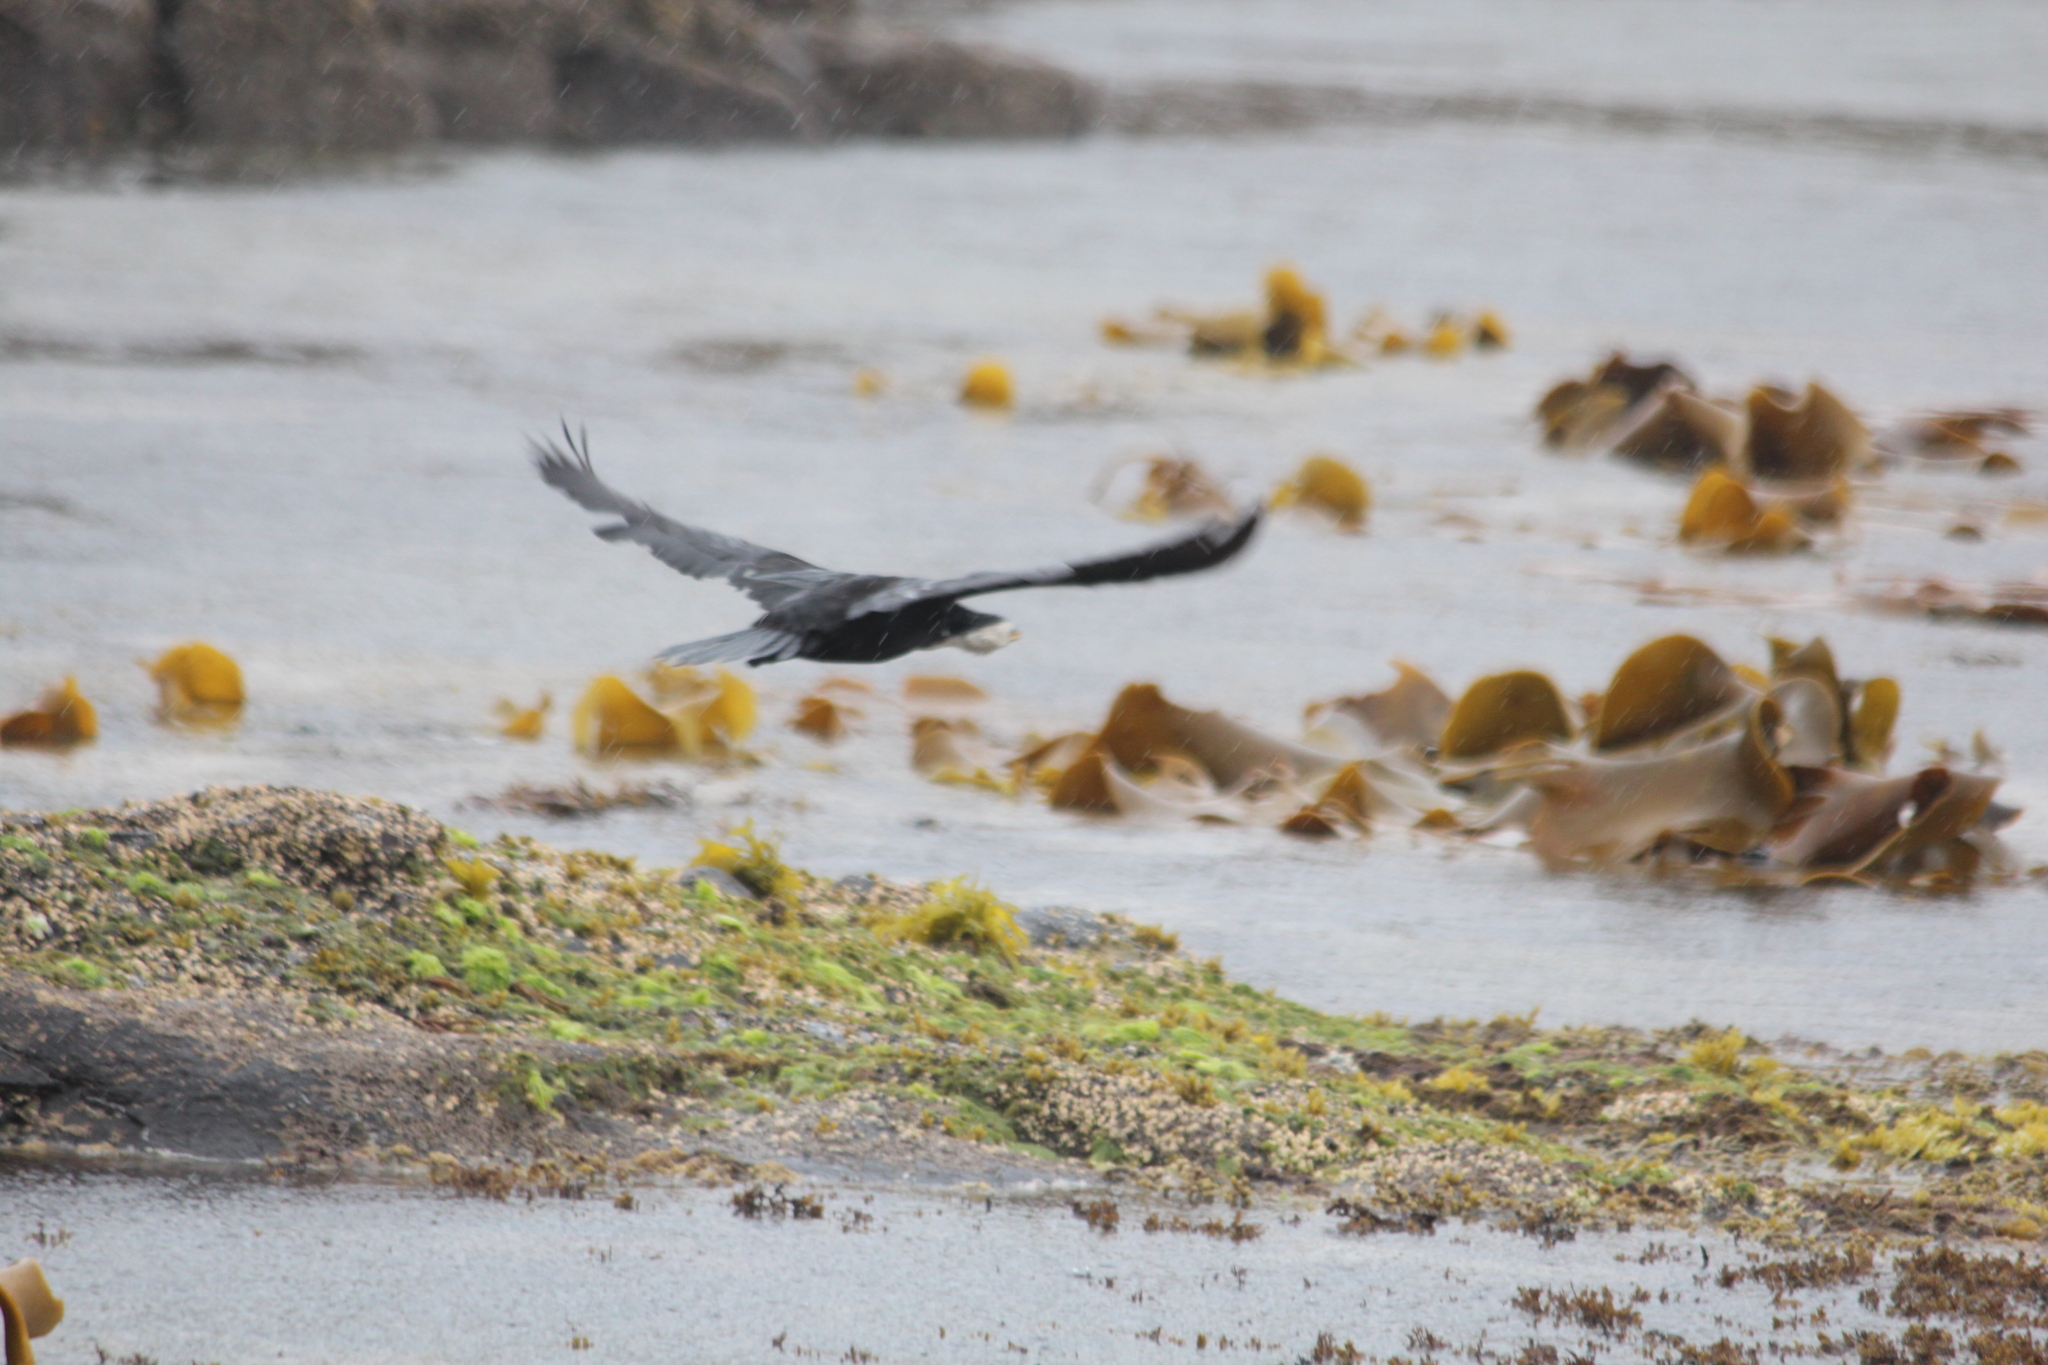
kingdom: Chromista
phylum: Ochrophyta
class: Phaeophyceae
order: Fucales
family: Durvillaeaceae
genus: Durvillaea
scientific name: Durvillaea poha
